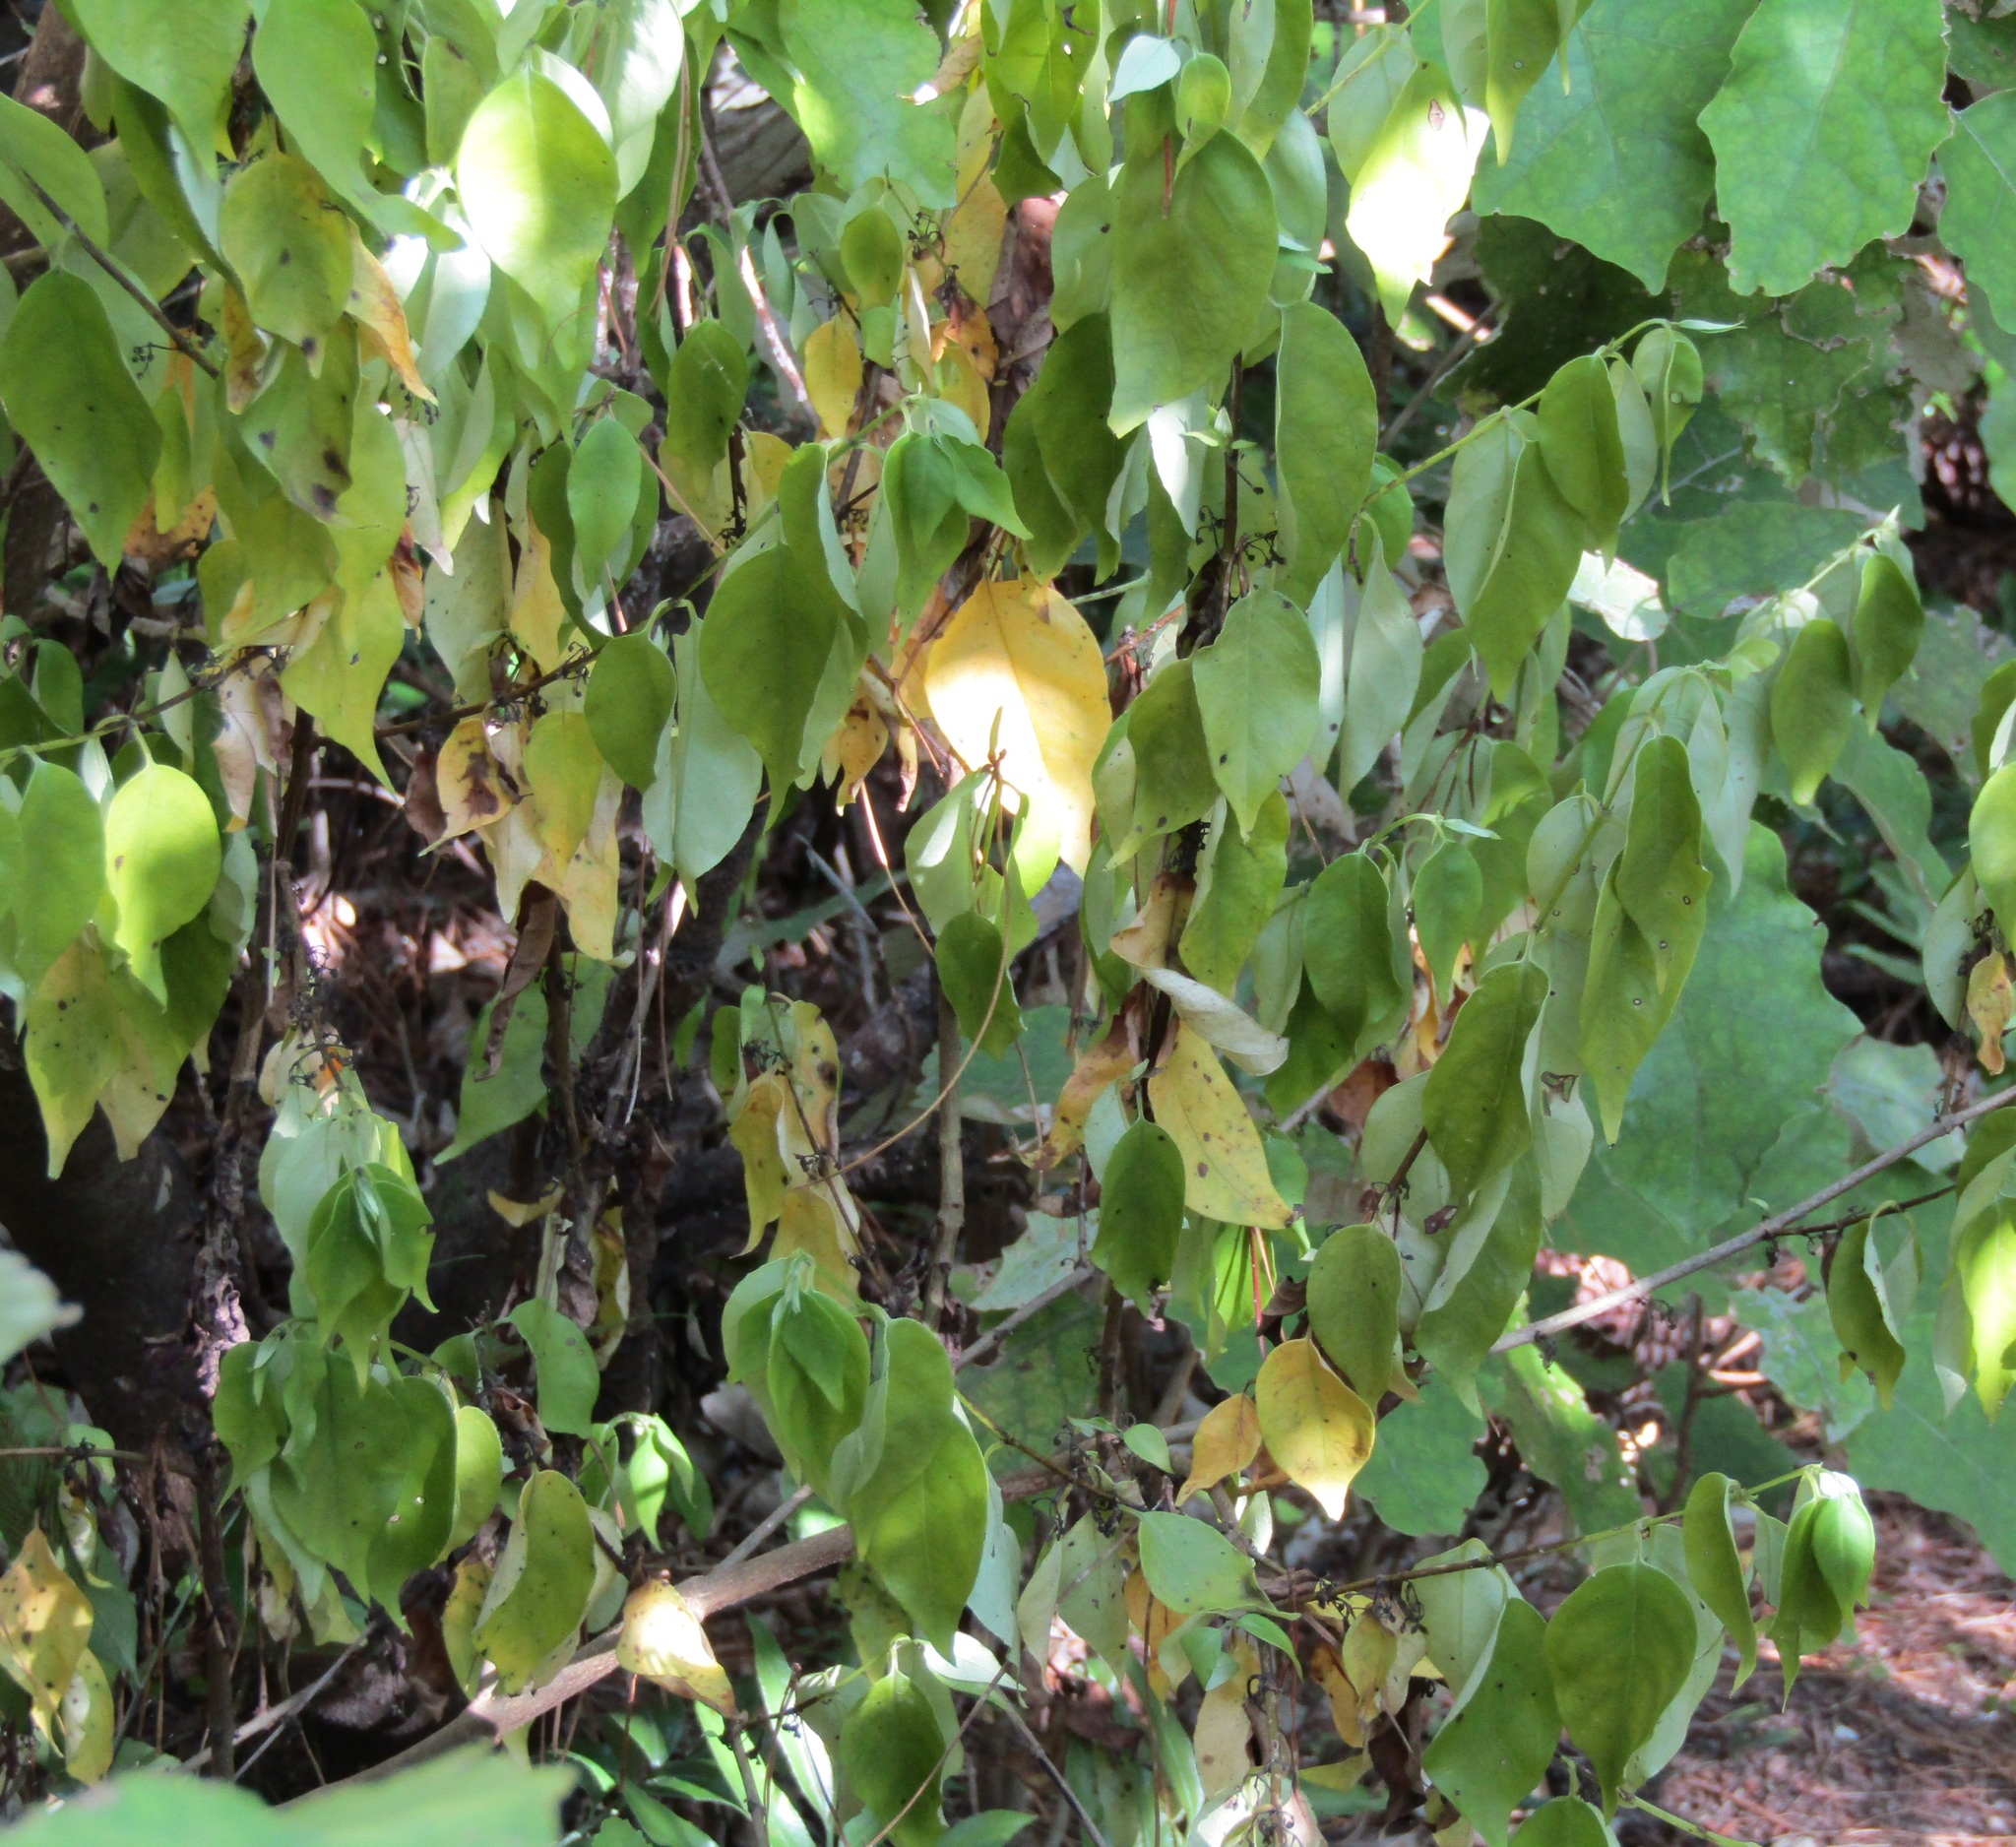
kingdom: Plantae
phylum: Tracheophyta
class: Magnoliopsida
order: Gentianales
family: Loganiaceae
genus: Geniostoma
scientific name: Geniostoma ligustrifolium
